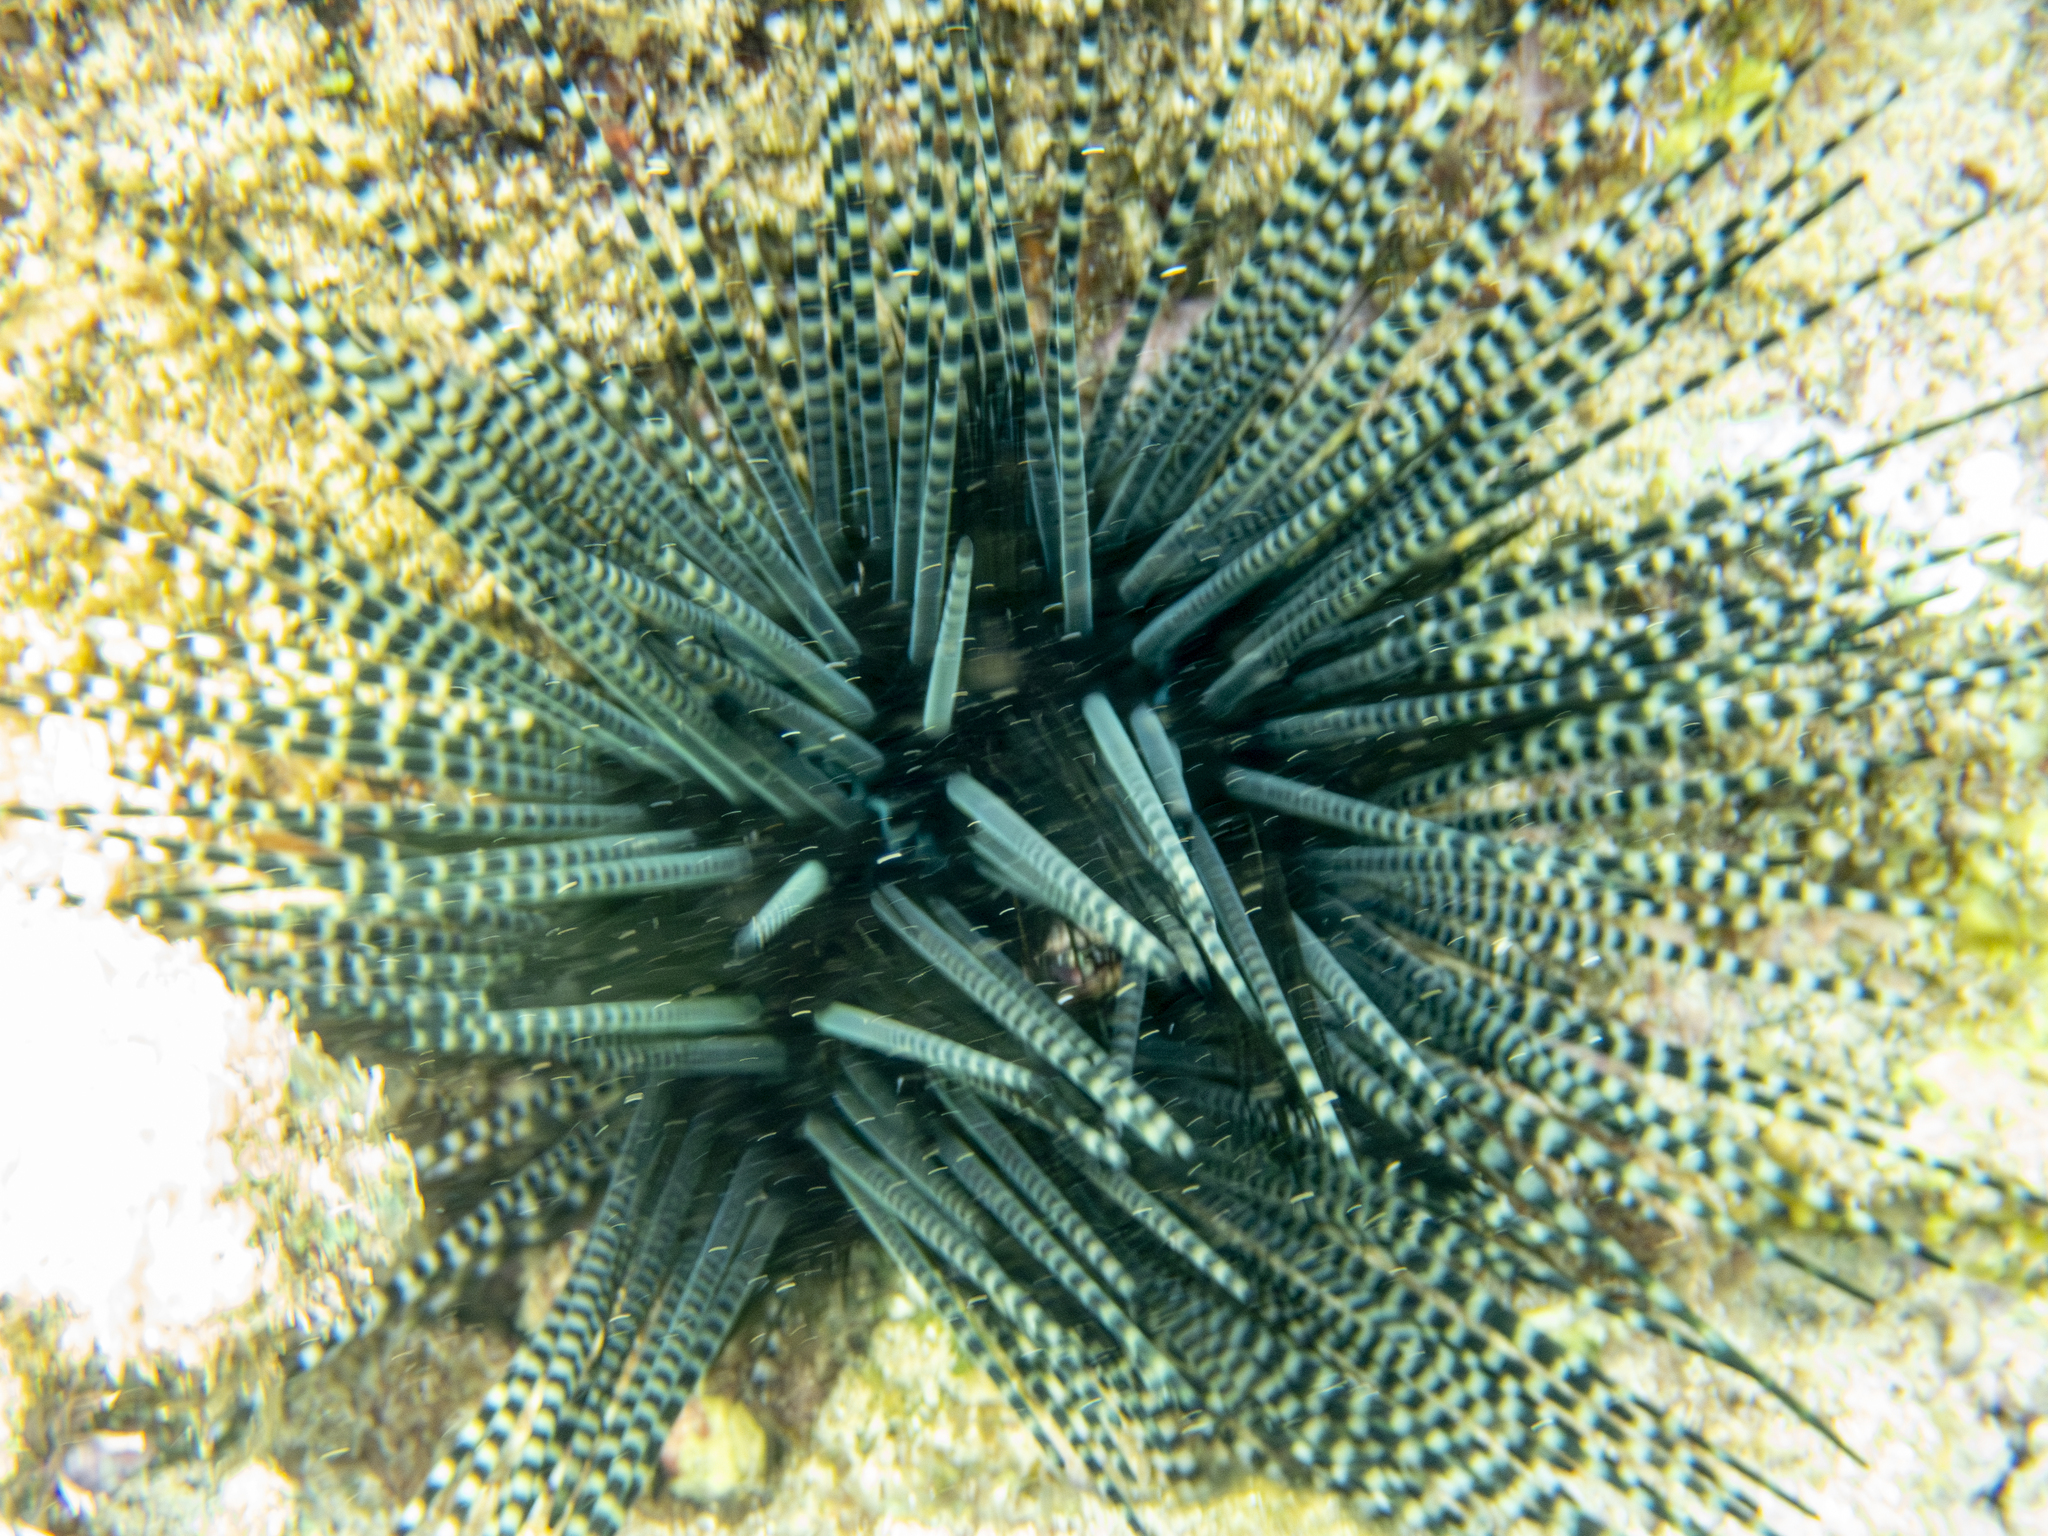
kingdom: Animalia
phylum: Echinodermata
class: Echinoidea
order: Diadematoida
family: Diadematidae
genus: Echinothrix
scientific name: Echinothrix calamaris
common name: Banded sea urchin
